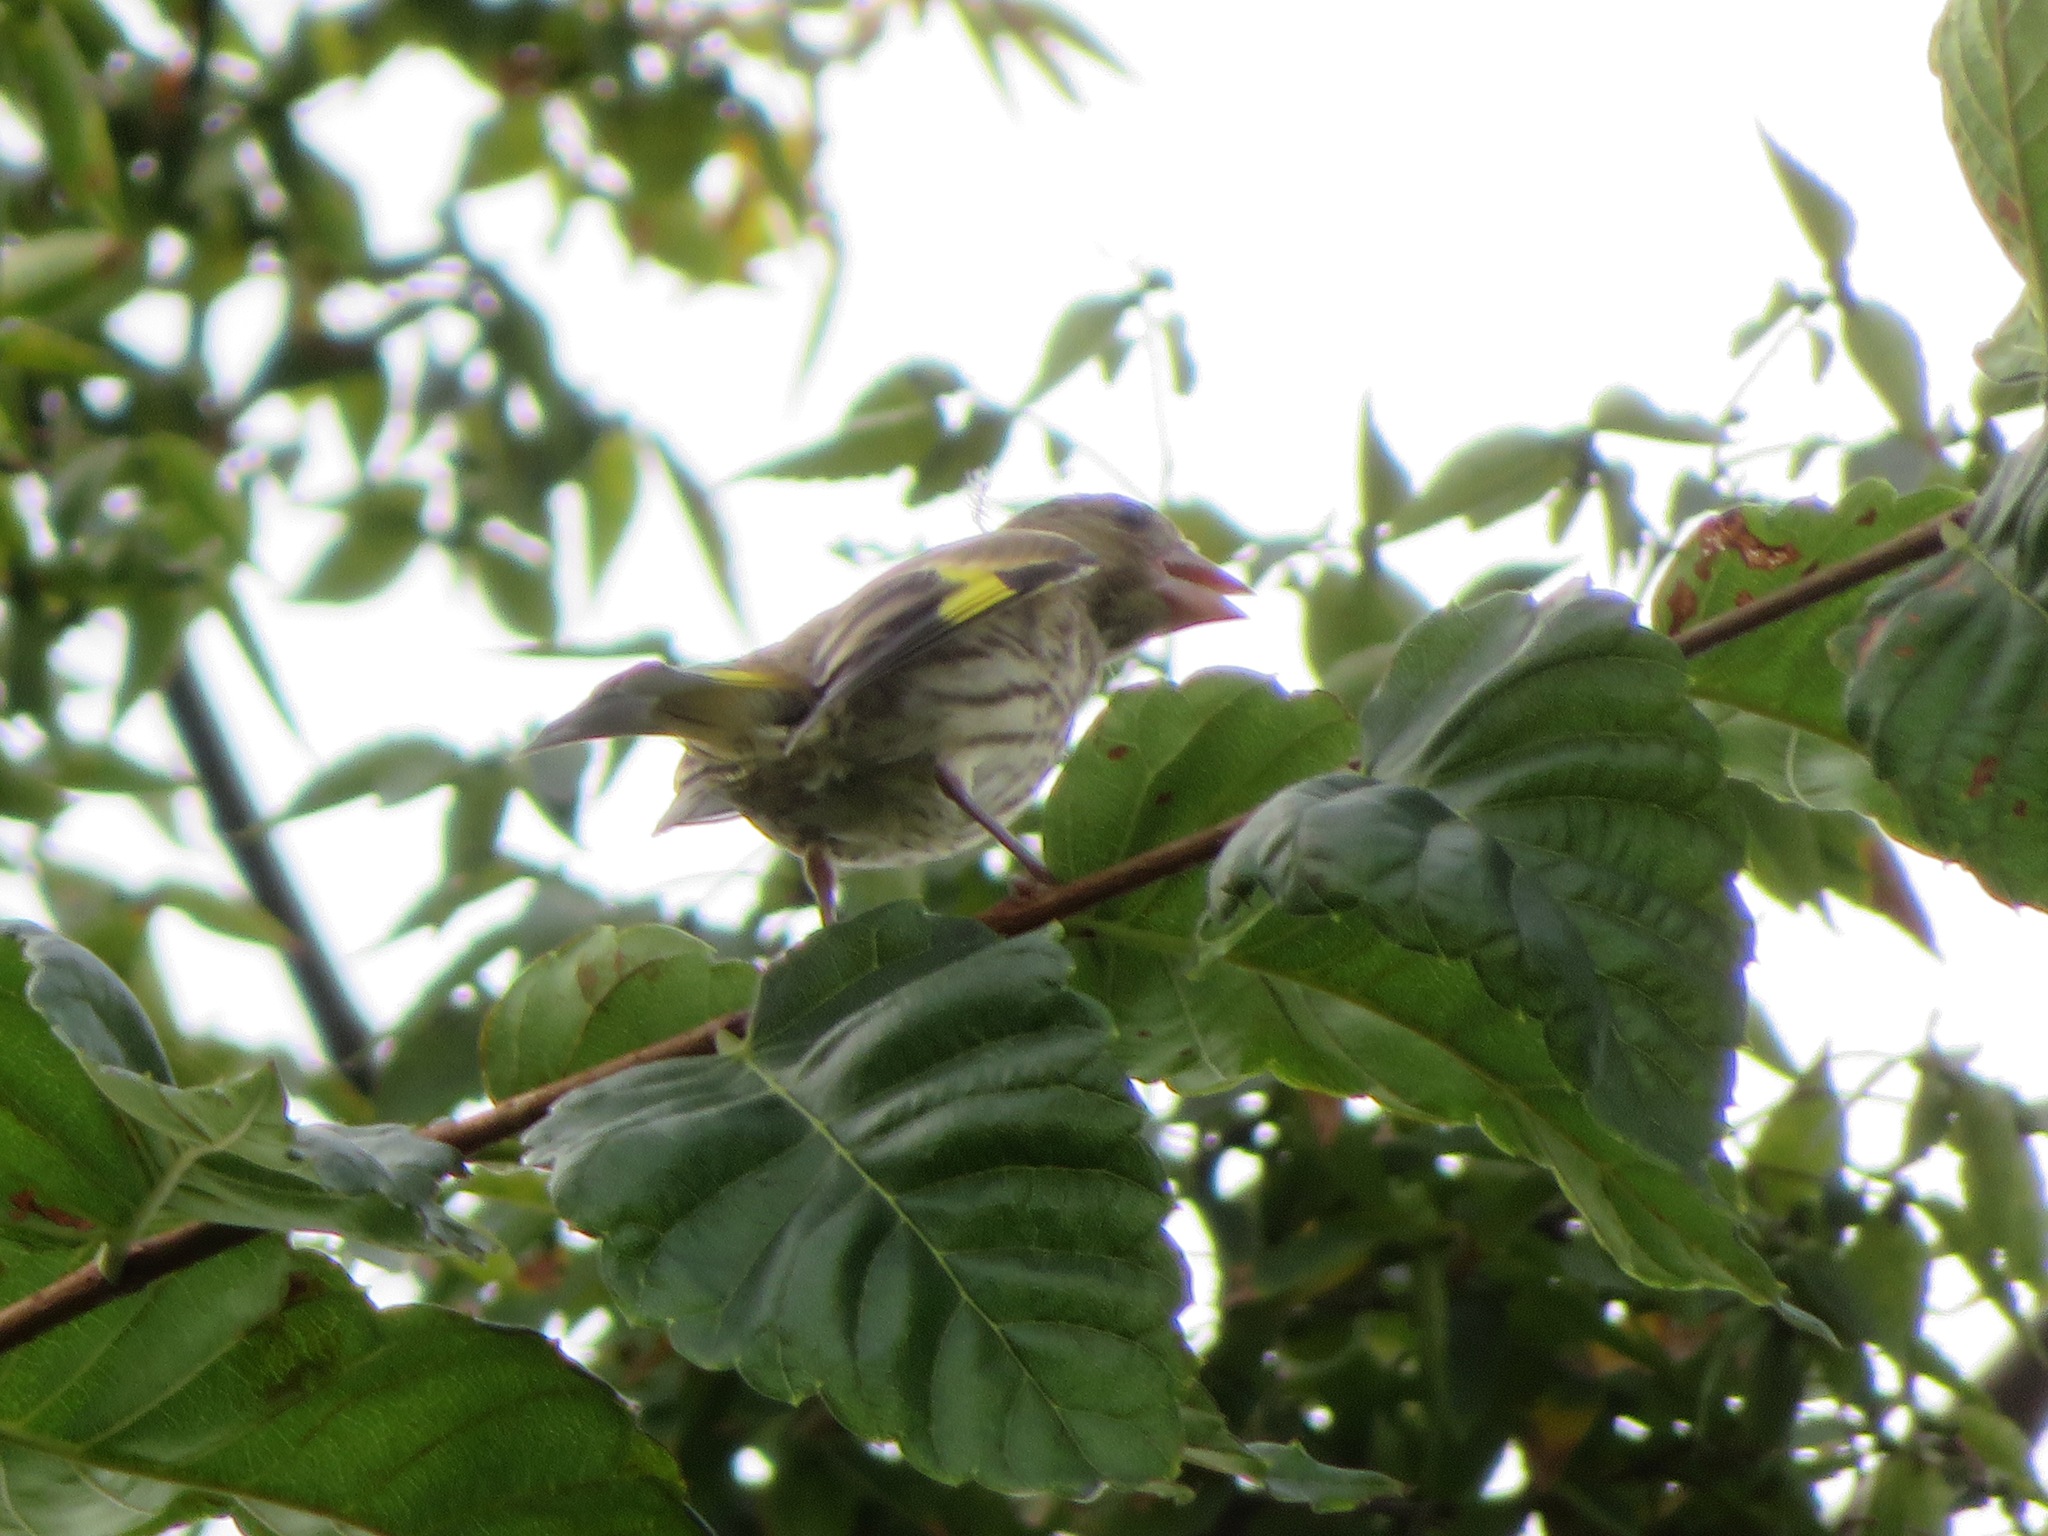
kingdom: Plantae
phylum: Tracheophyta
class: Liliopsida
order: Poales
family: Poaceae
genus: Chloris
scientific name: Chloris sinica
